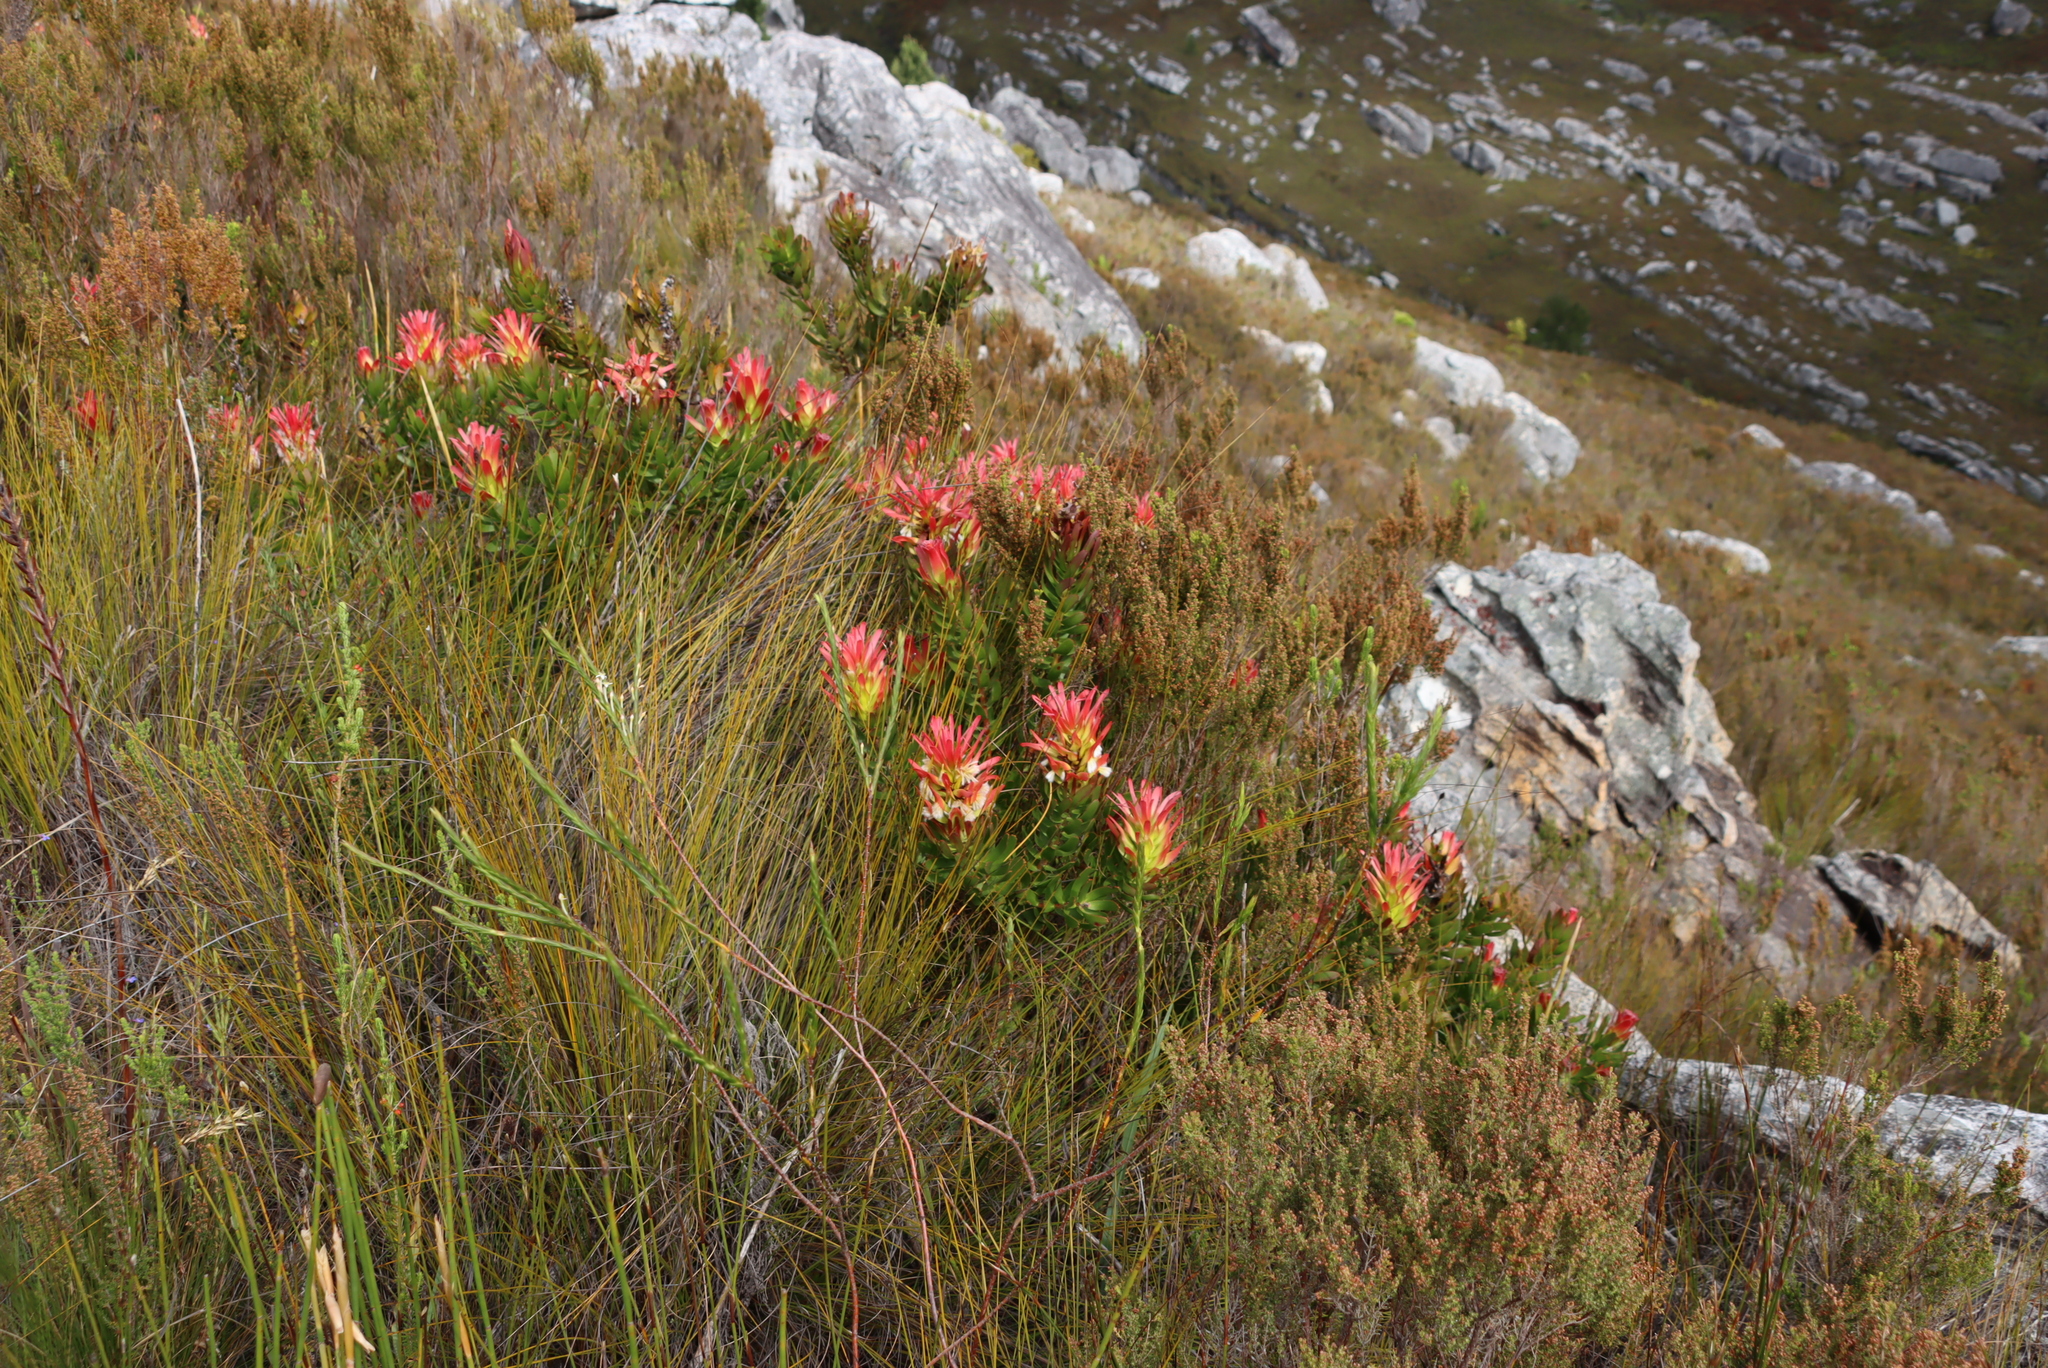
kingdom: Plantae
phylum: Tracheophyta
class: Magnoliopsida
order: Proteales
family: Proteaceae
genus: Mimetes
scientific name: Mimetes cucullatus
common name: Common pagoda
